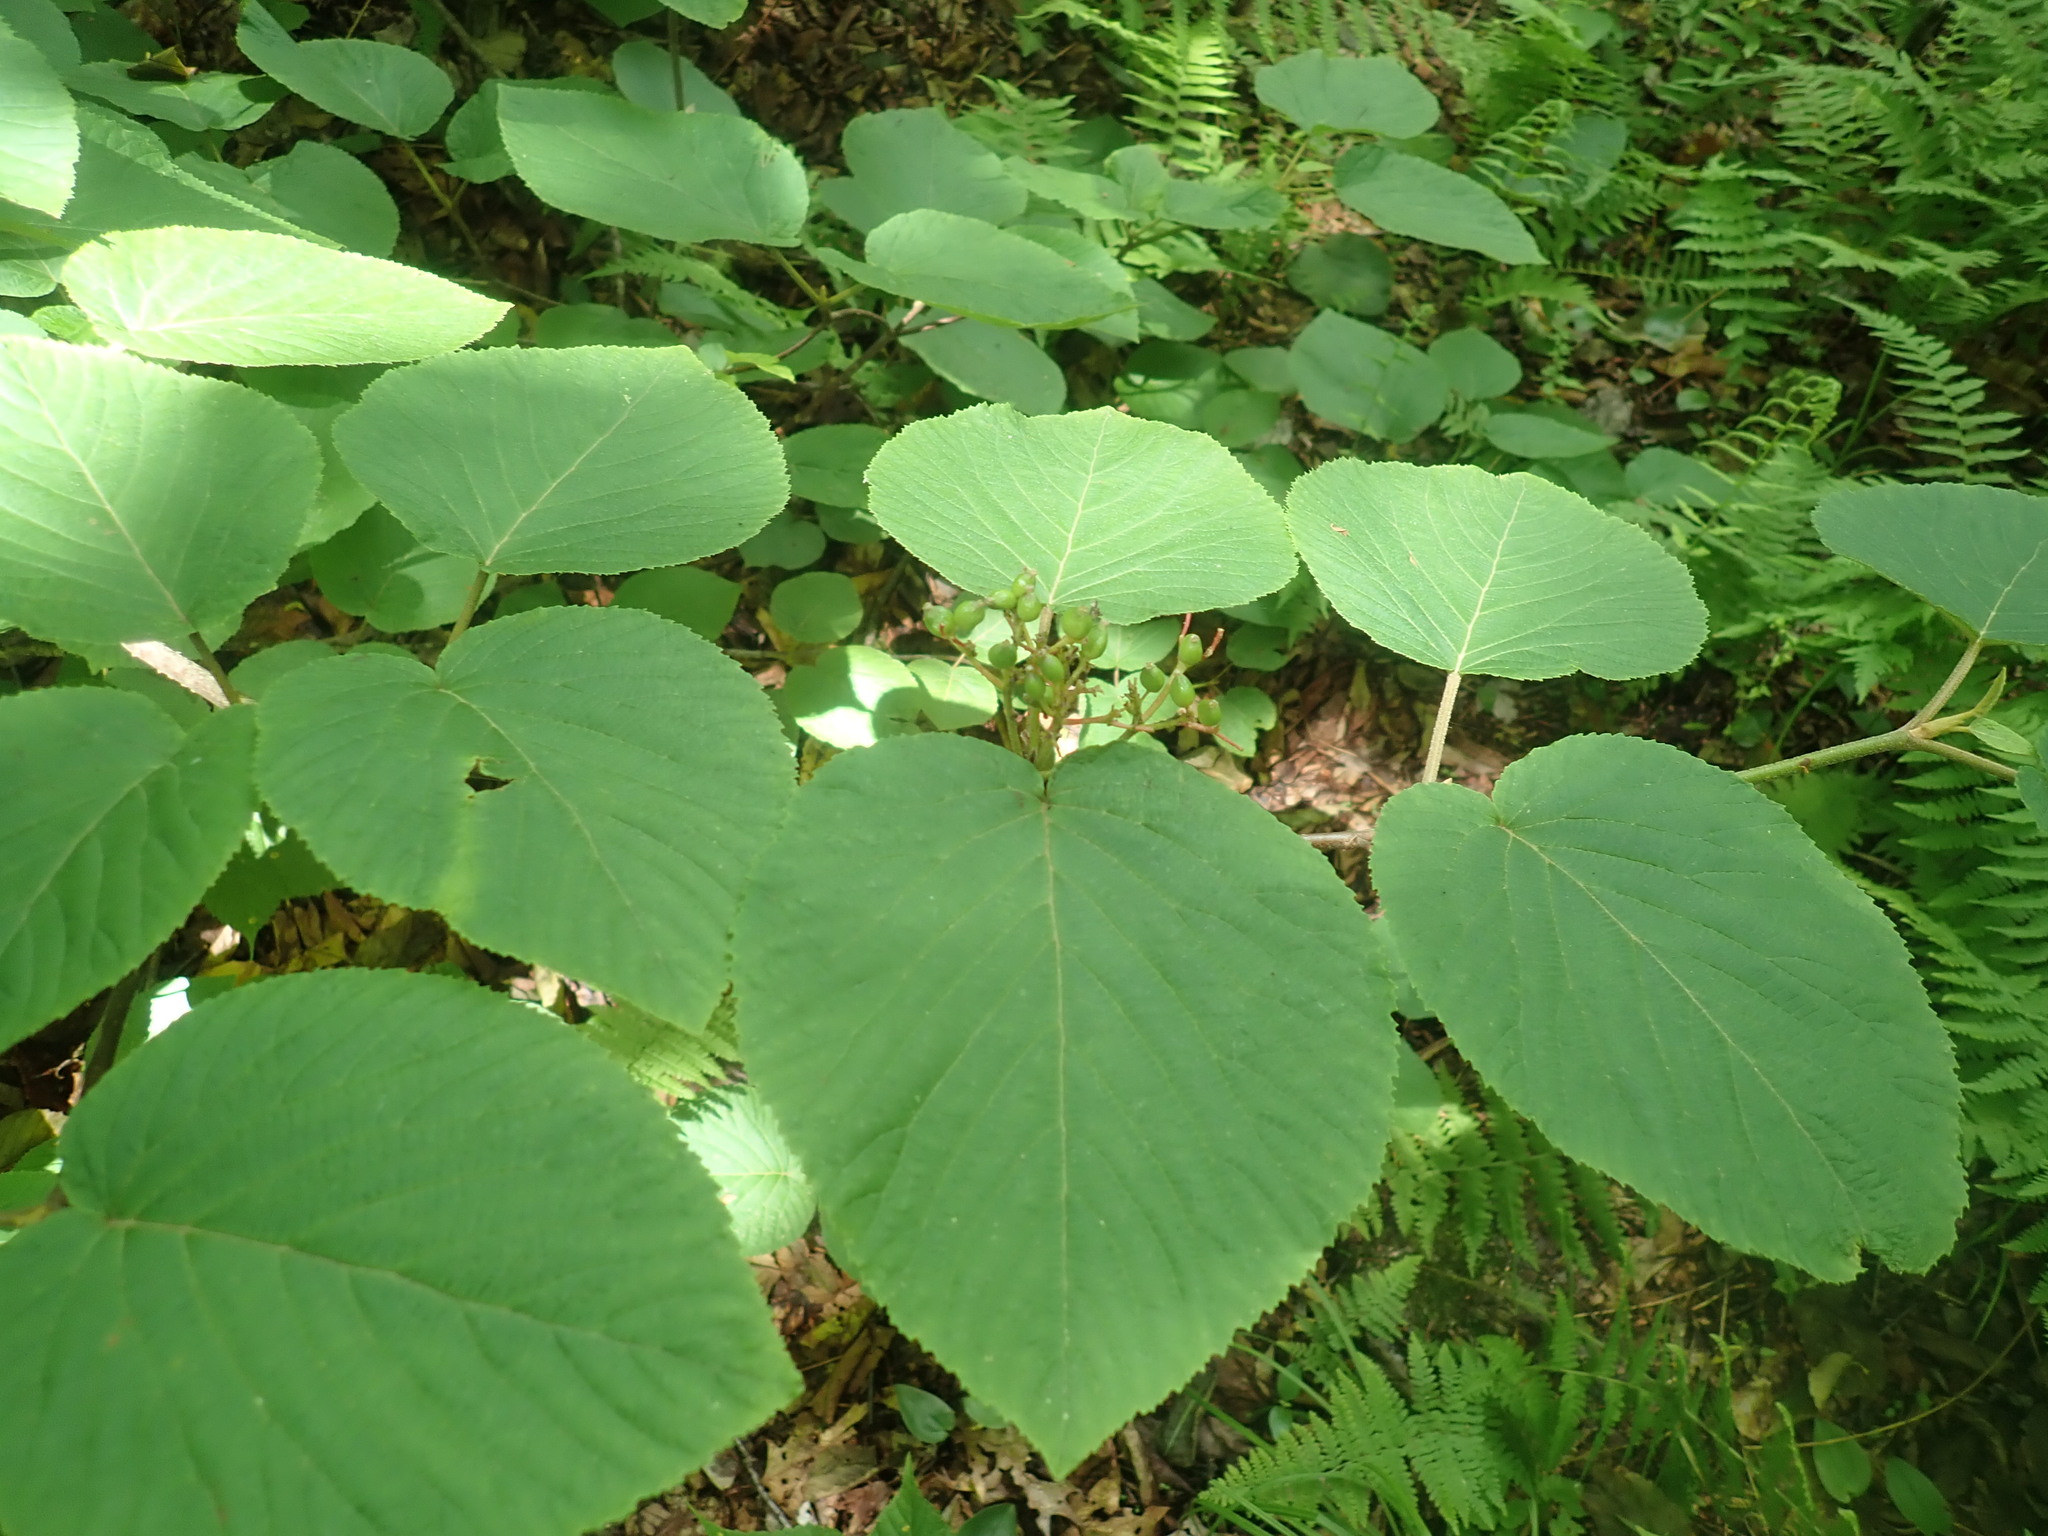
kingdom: Plantae
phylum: Tracheophyta
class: Magnoliopsida
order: Dipsacales
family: Viburnaceae
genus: Viburnum
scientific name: Viburnum lantanoides
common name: Hobblebush
